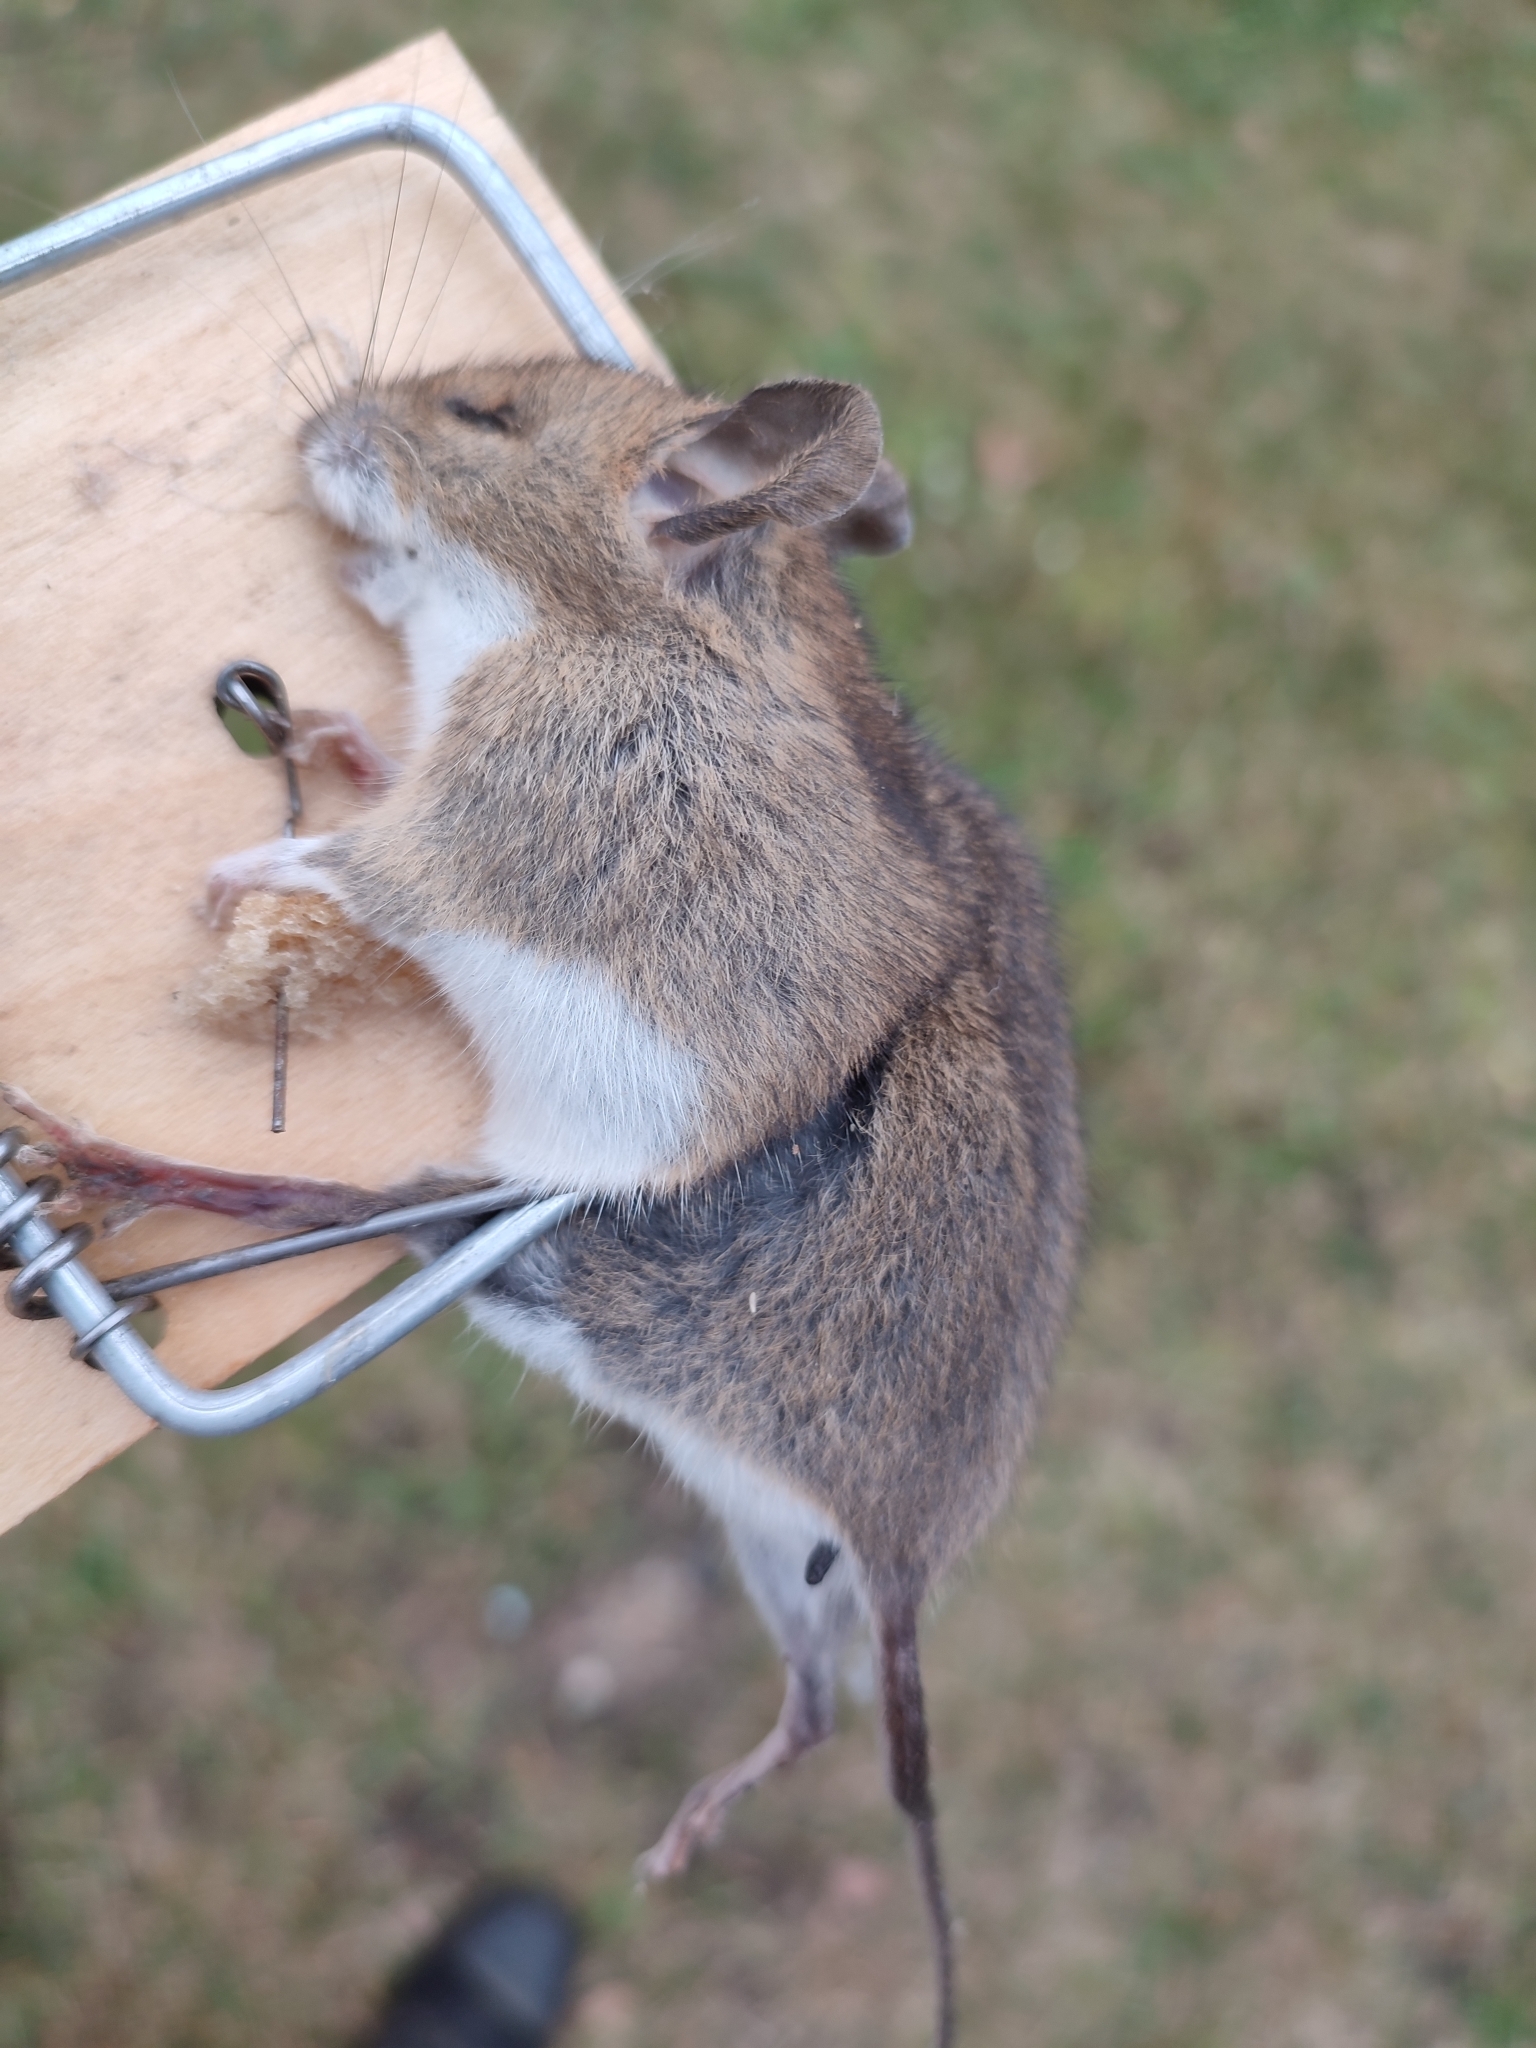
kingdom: Animalia
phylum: Chordata
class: Mammalia
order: Rodentia
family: Muridae
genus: Apodemus
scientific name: Apodemus flavicollis
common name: Yellow-necked field mouse
